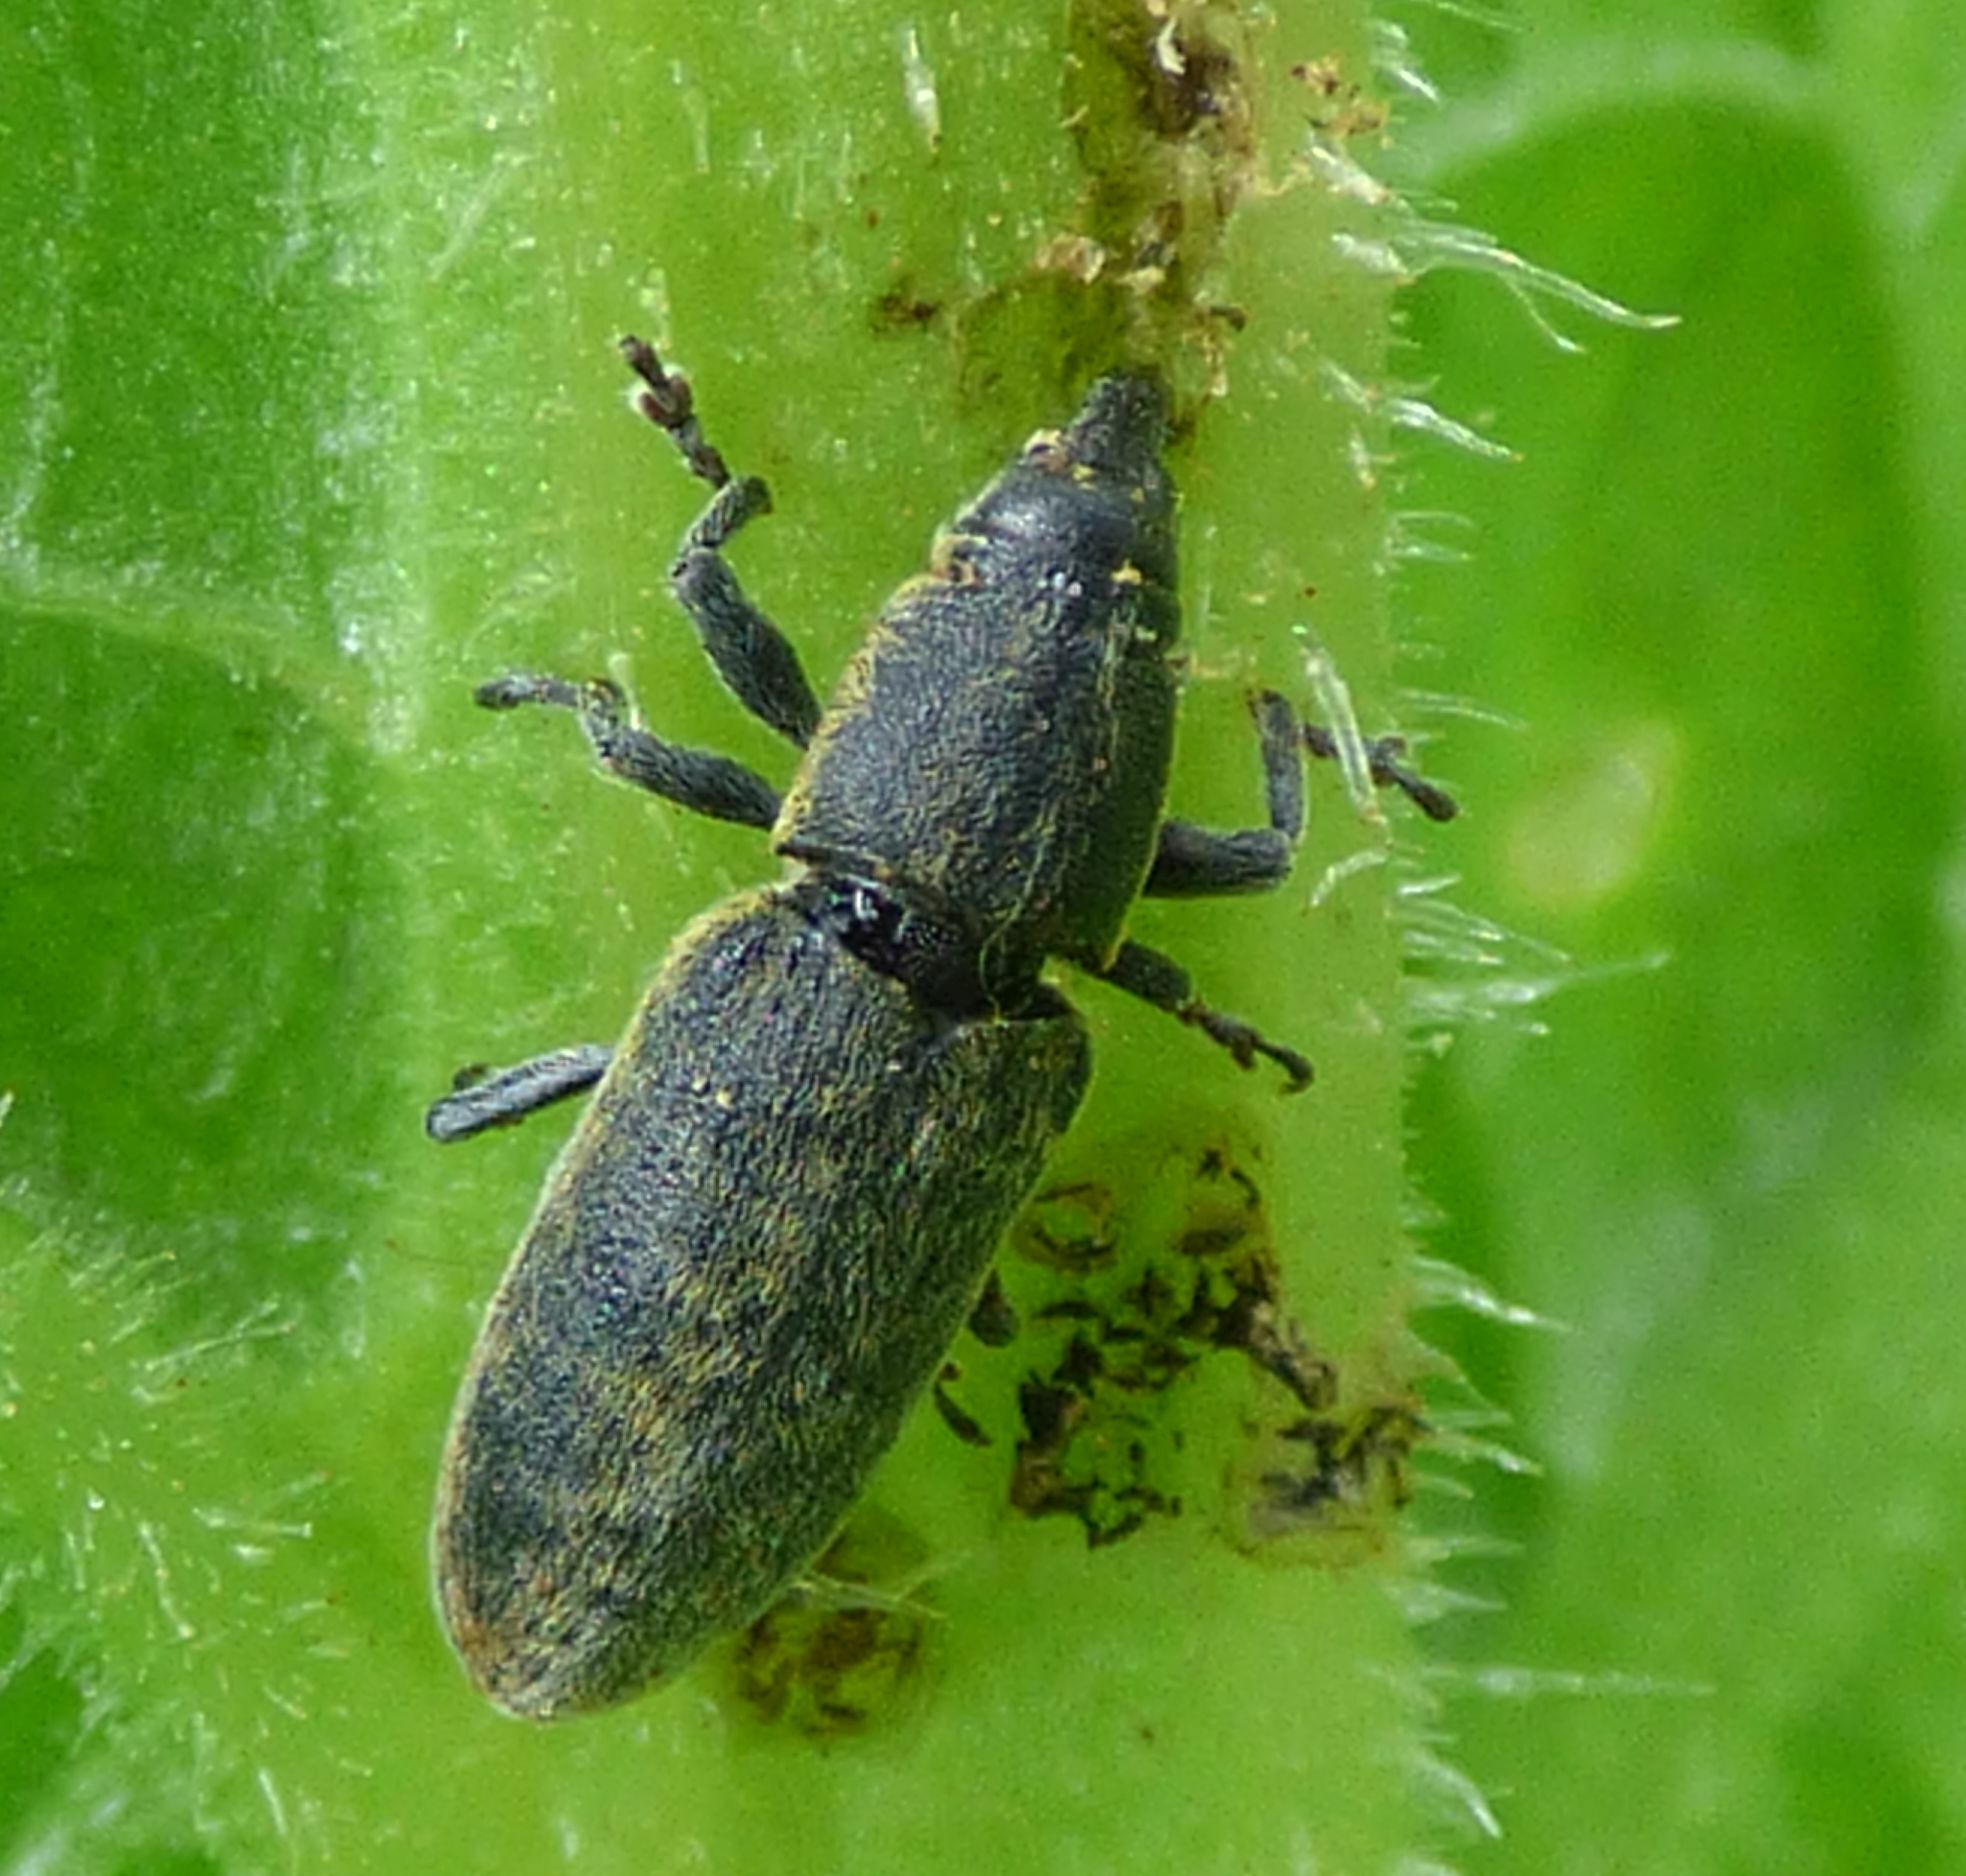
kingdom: Animalia
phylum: Arthropoda
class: Insecta
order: Coleoptera
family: Curculionidae
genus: Lixus
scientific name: Lixus cardui
